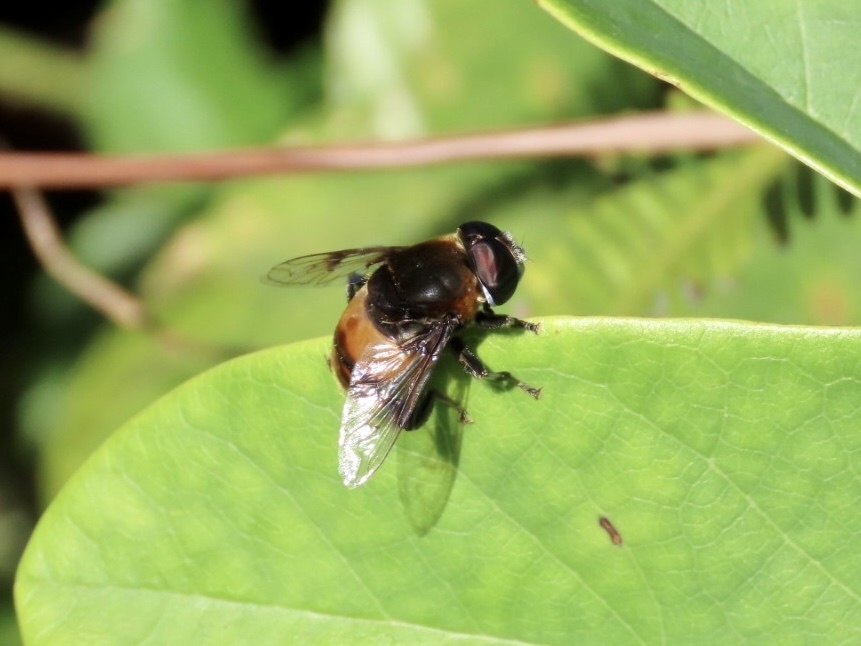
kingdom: Animalia
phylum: Arthropoda
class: Insecta
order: Diptera
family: Syrphidae
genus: Phytomia
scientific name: Phytomia zonata
